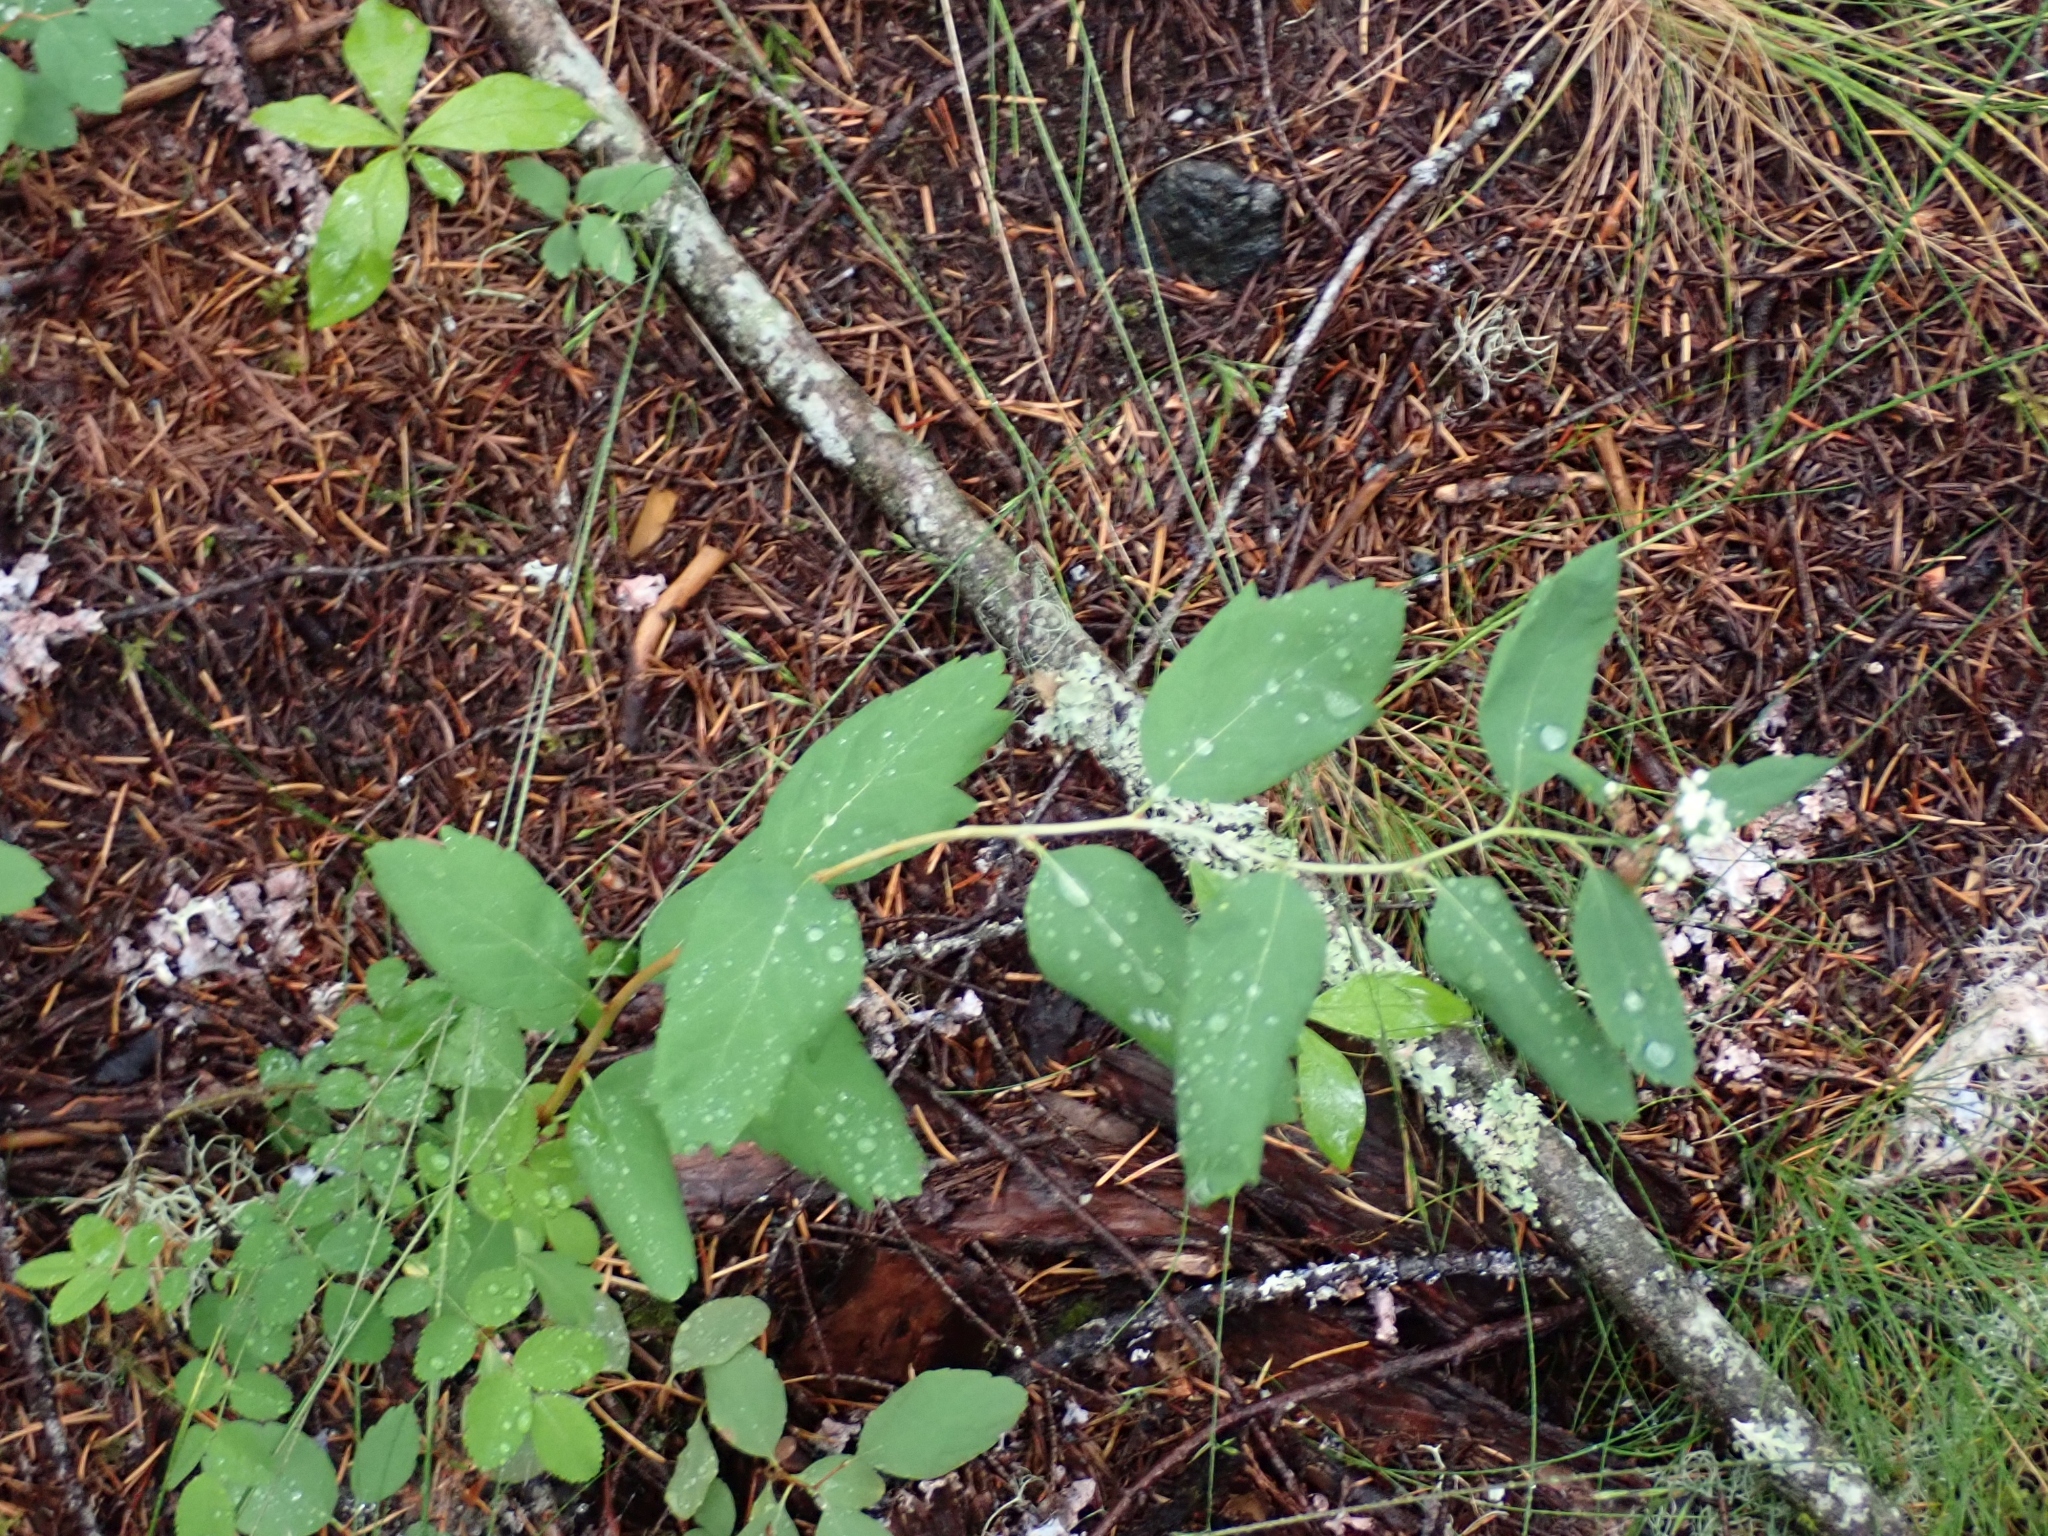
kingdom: Plantae
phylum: Tracheophyta
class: Magnoliopsida
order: Rosales
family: Rosaceae
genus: Spiraea
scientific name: Spiraea lucida
